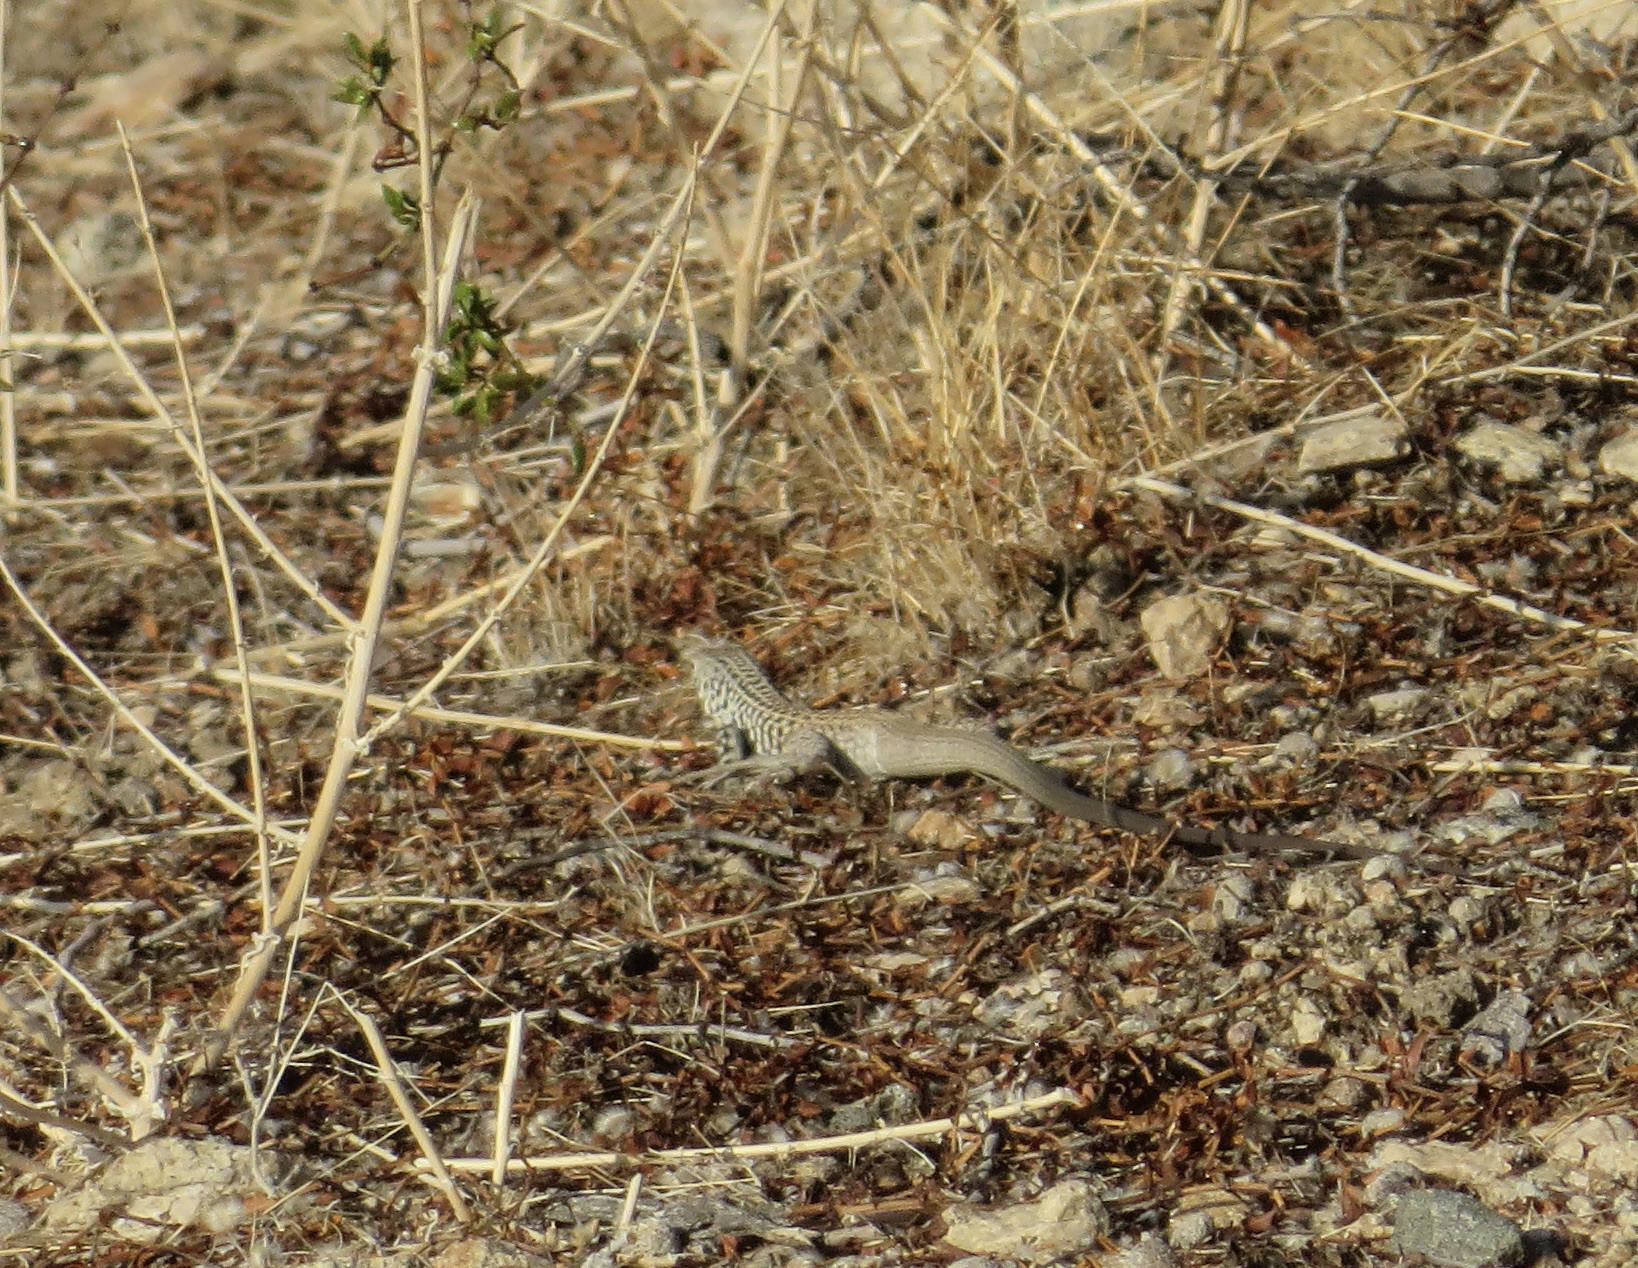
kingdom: Animalia
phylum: Chordata
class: Squamata
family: Teiidae
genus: Aspidoscelis
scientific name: Aspidoscelis tigris
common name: Tiger whiptail
